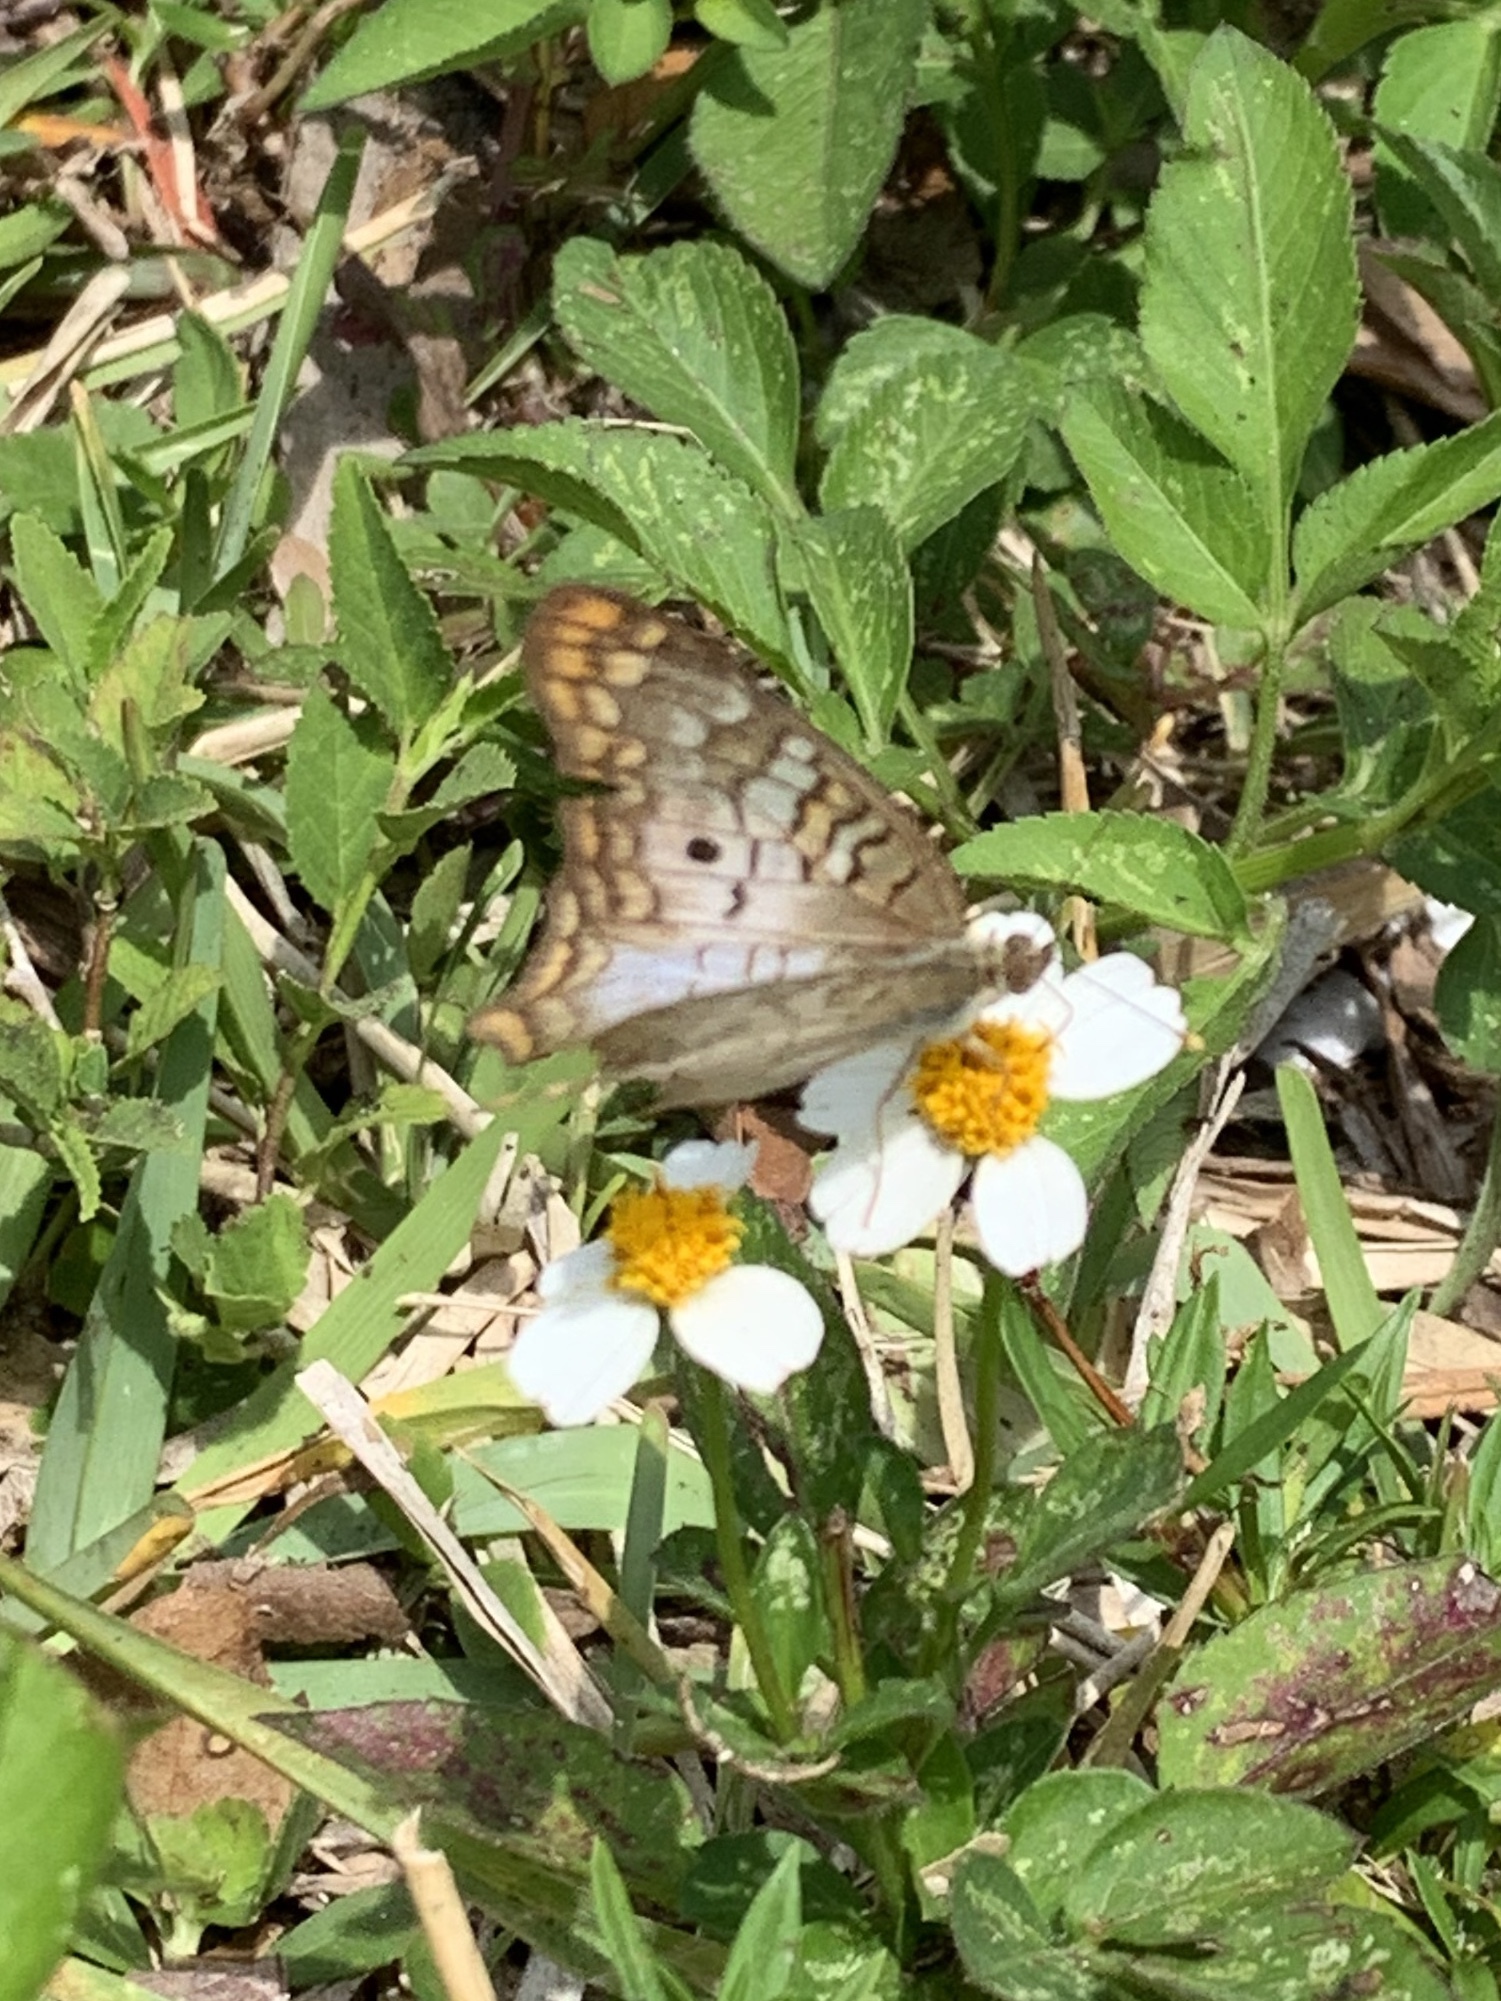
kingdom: Animalia
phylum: Arthropoda
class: Insecta
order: Lepidoptera
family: Nymphalidae
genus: Anartia
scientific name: Anartia jatrophae
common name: White peacock
